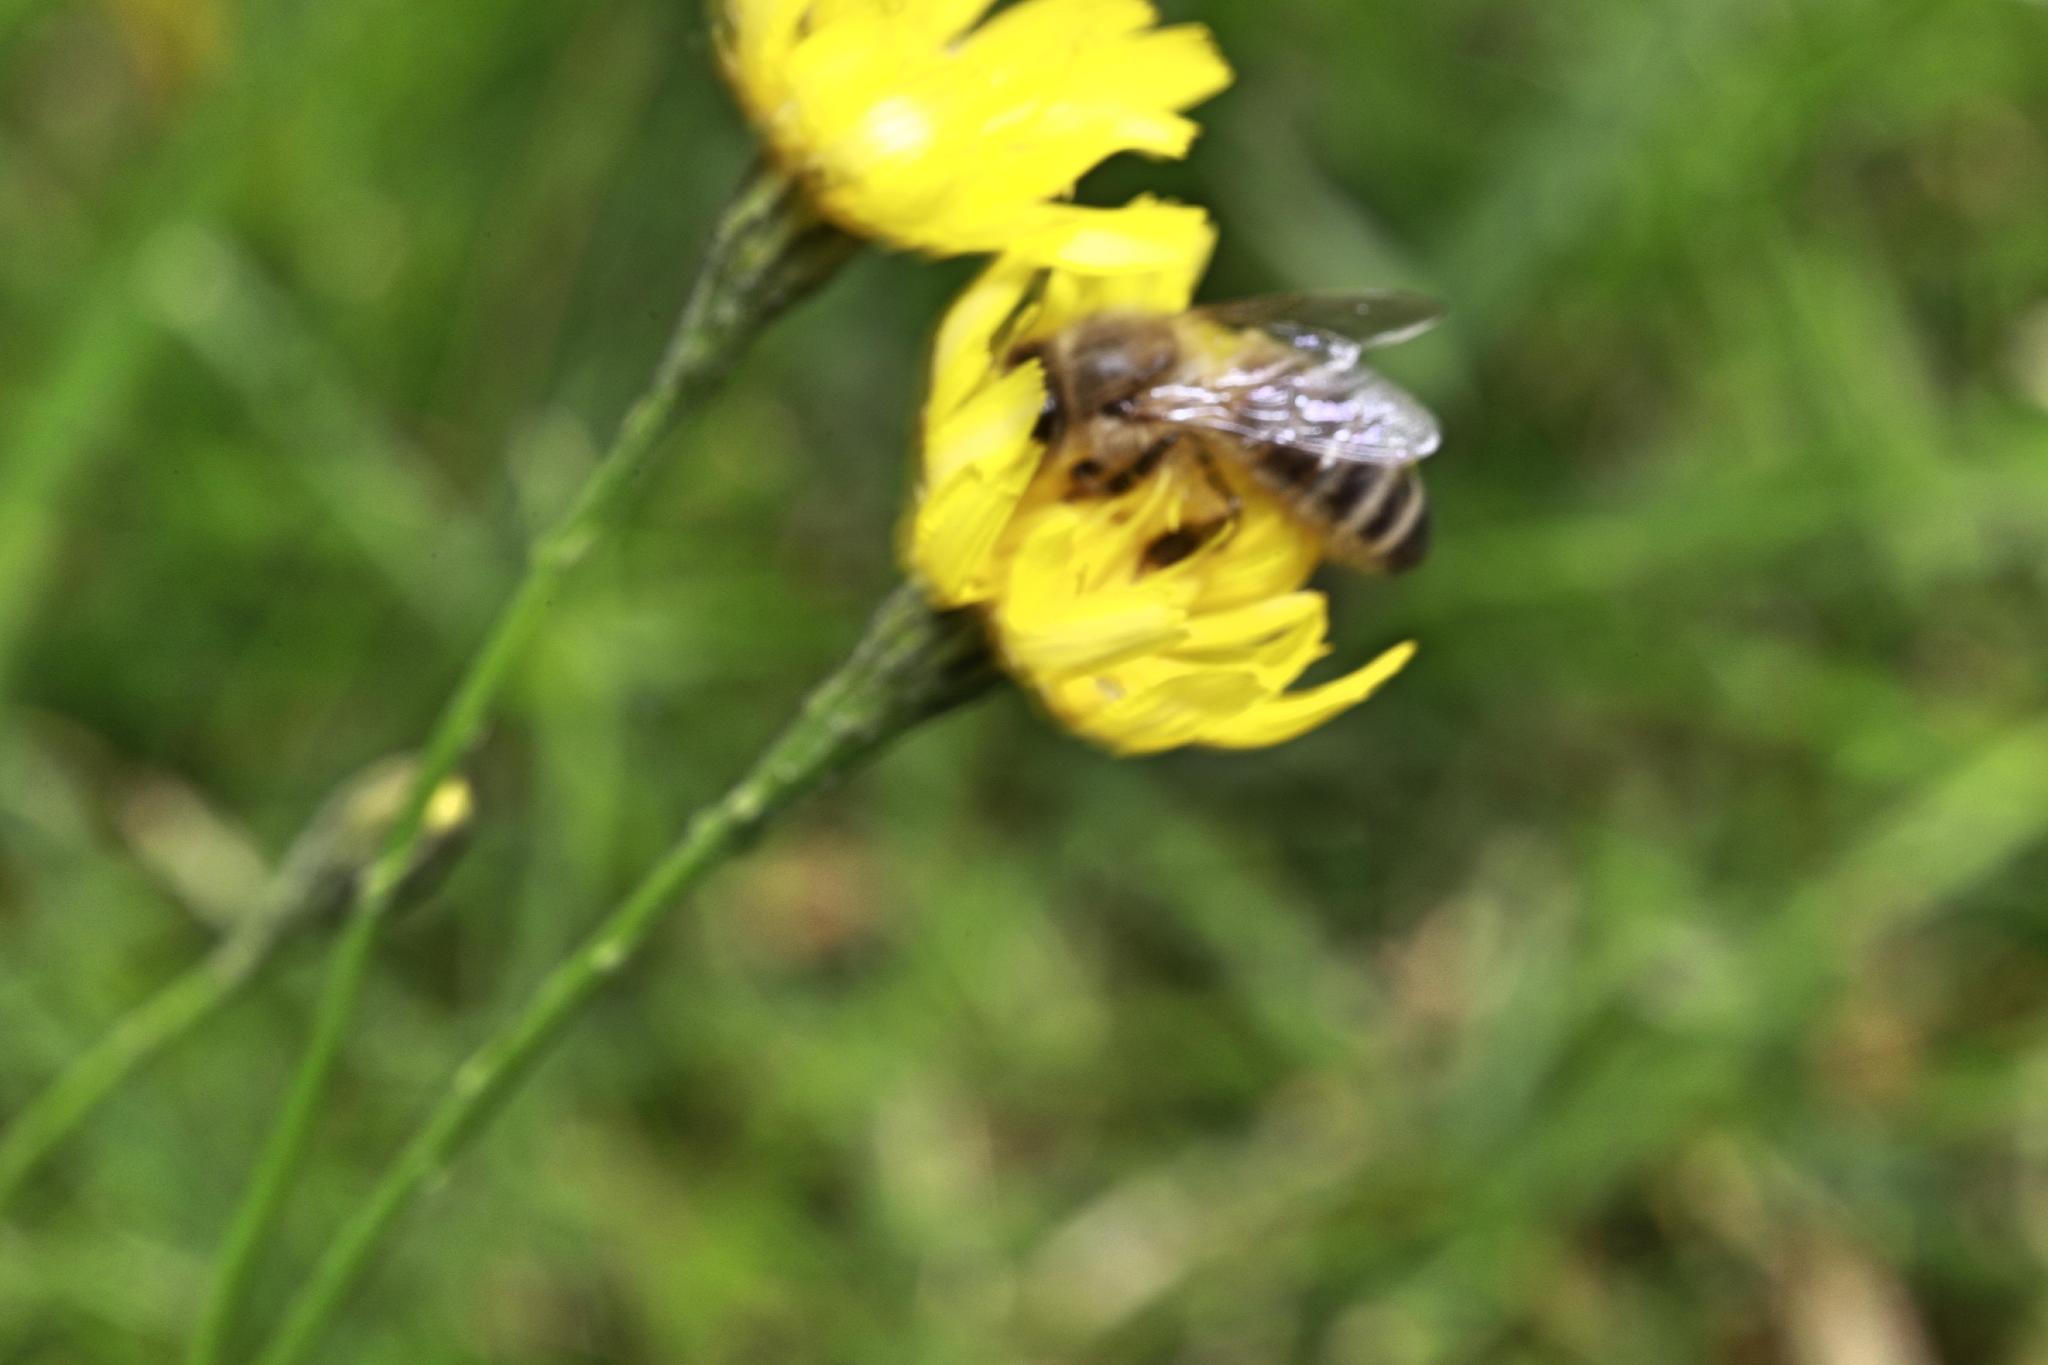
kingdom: Animalia
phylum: Arthropoda
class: Insecta
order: Hymenoptera
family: Apidae
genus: Apis
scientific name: Apis mellifera
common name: Honey bee
